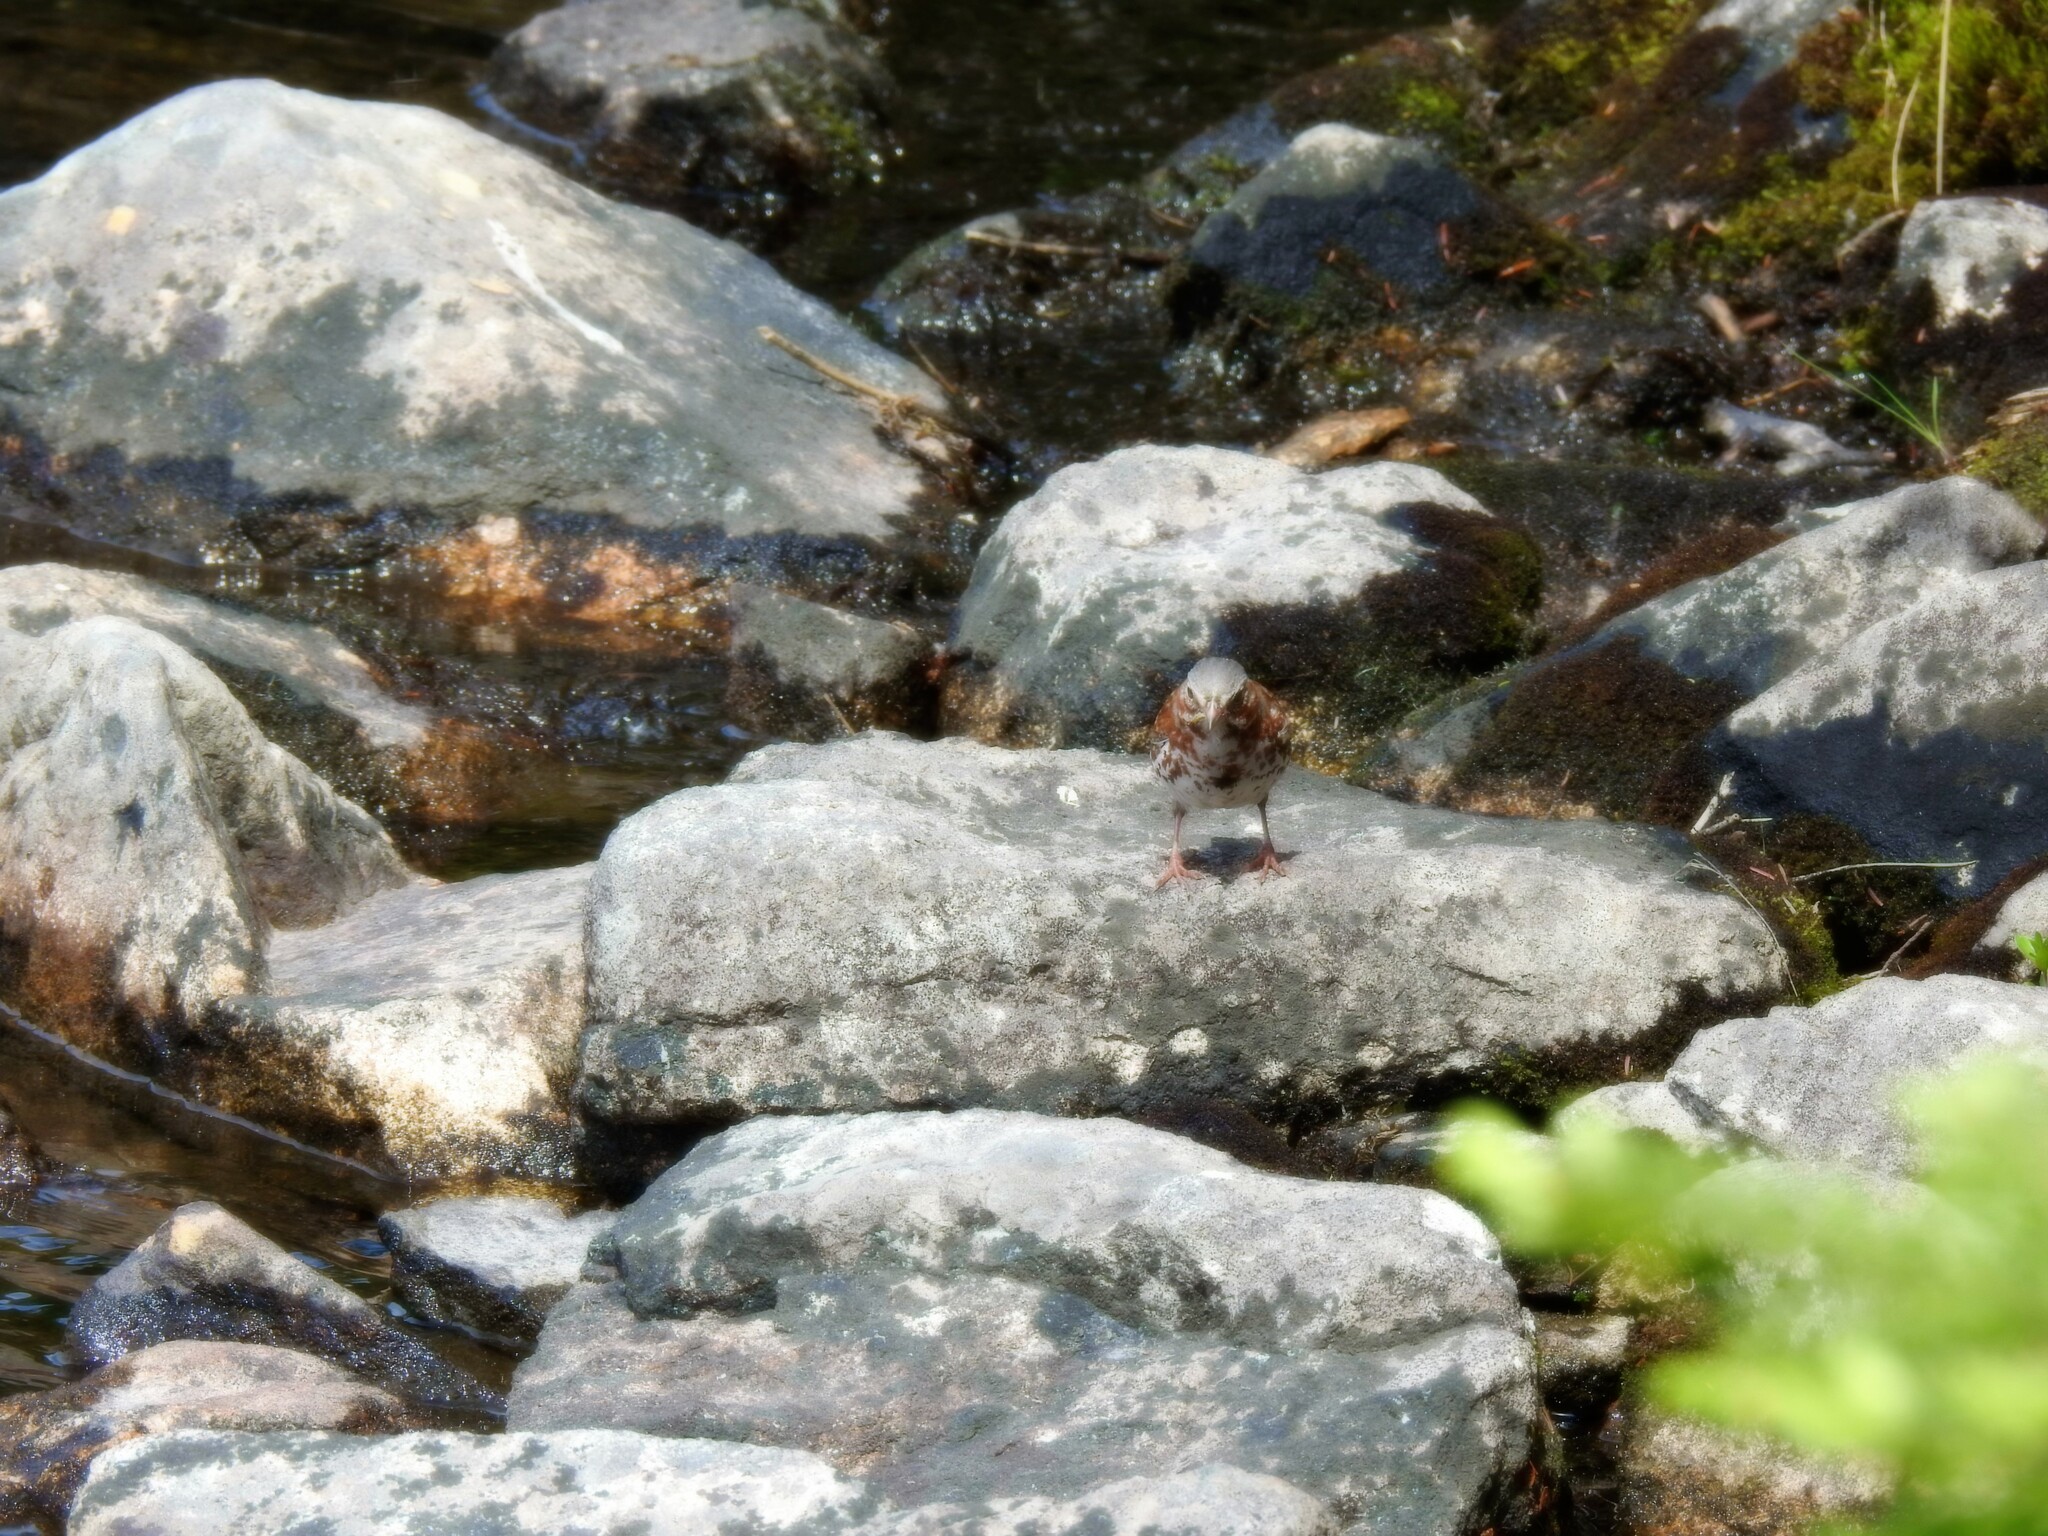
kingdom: Animalia
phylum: Chordata
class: Aves
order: Passeriformes
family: Passerellidae
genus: Passerella
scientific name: Passerella iliaca
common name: Fox sparrow
